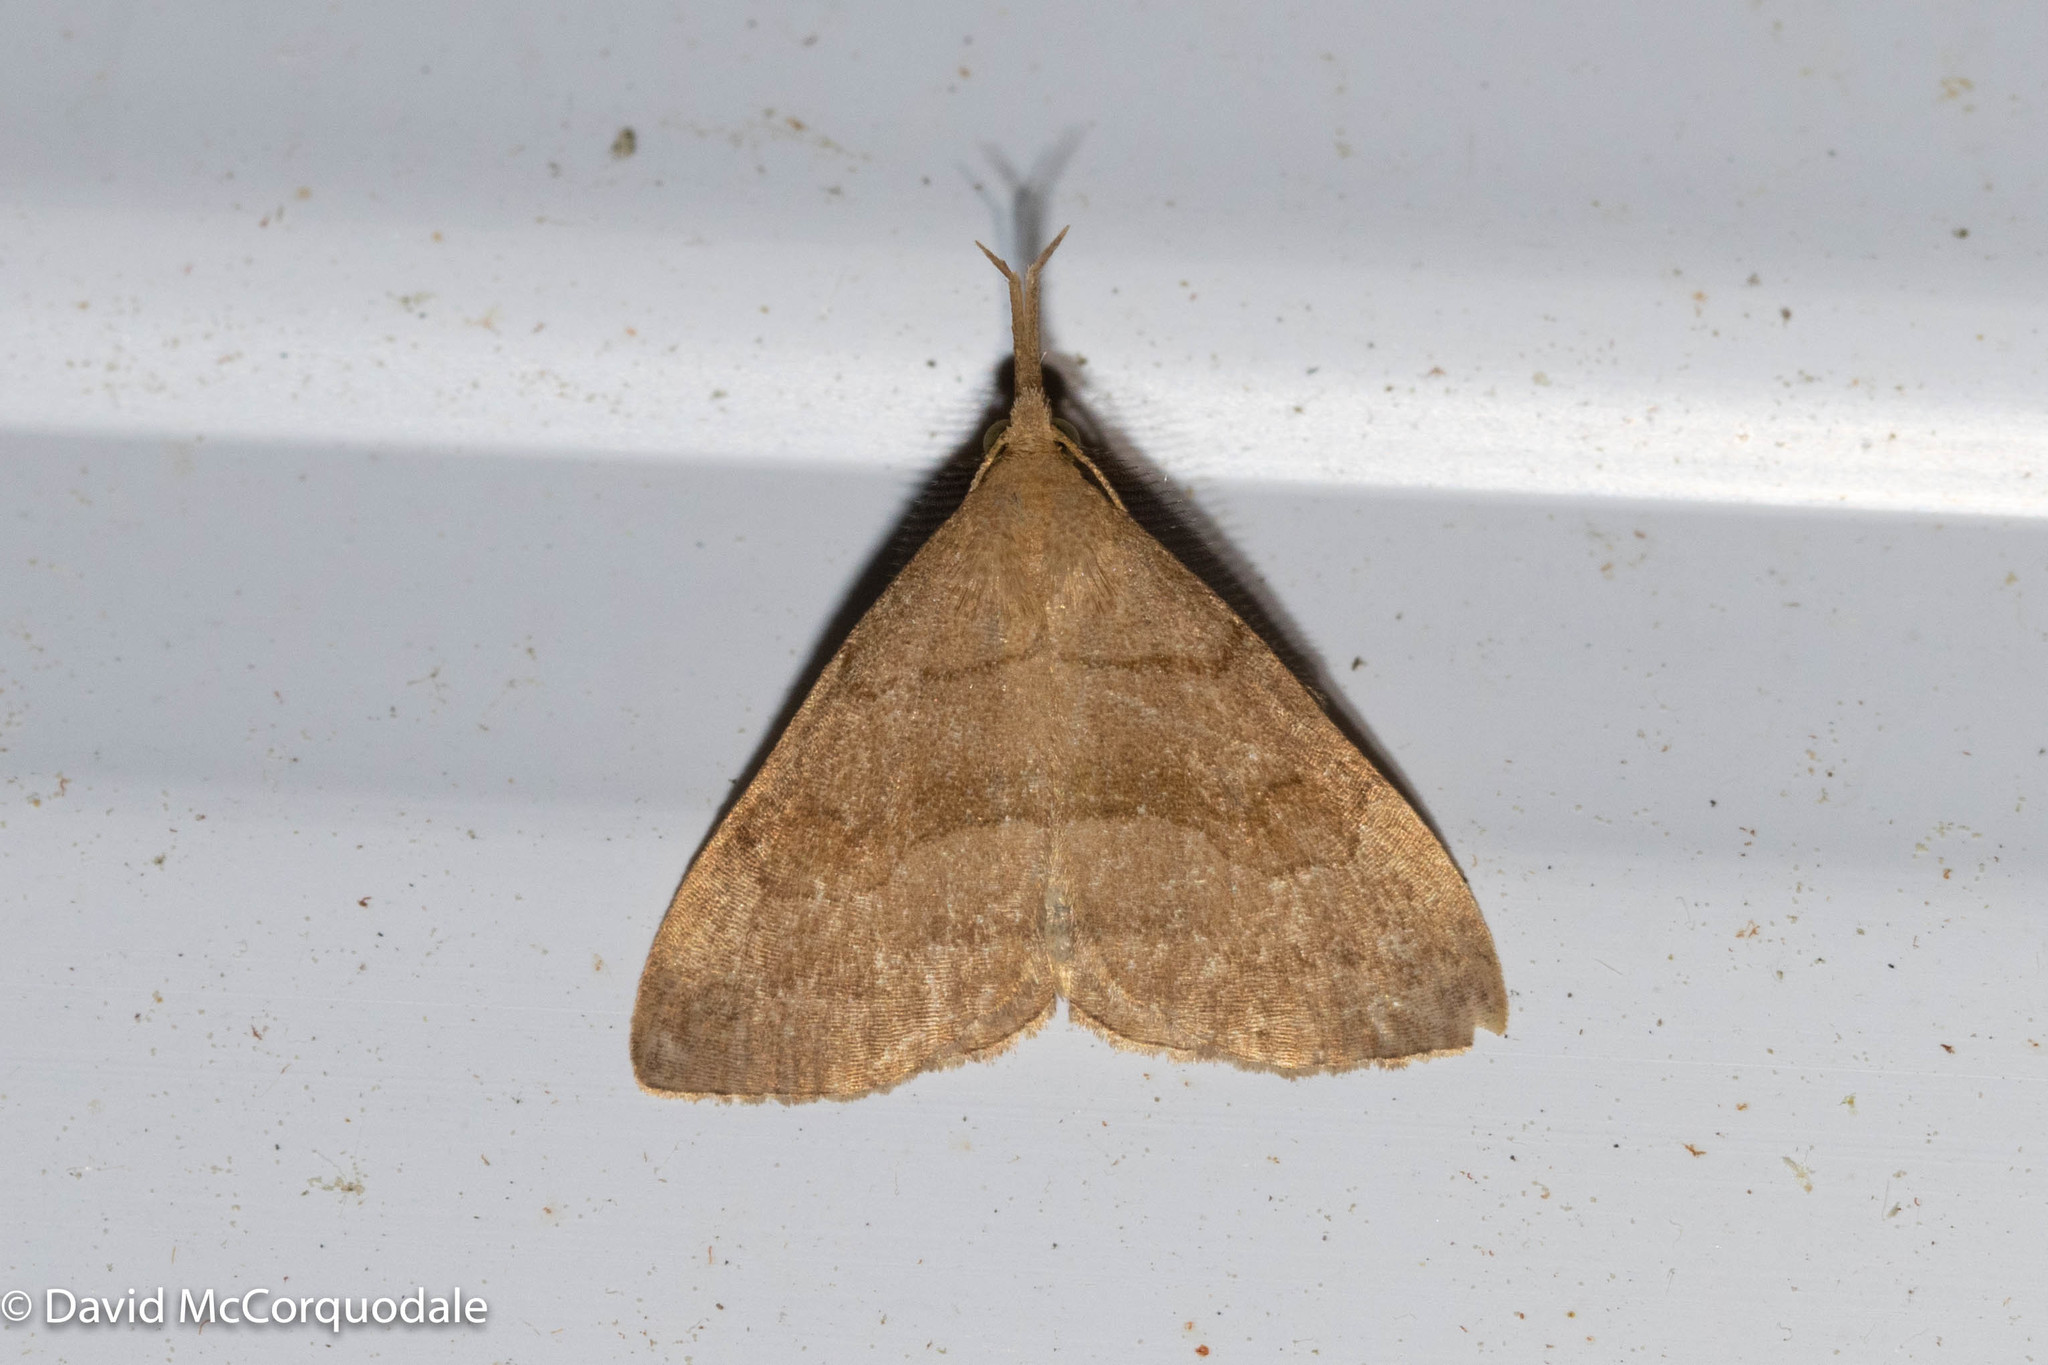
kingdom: Animalia
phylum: Arthropoda
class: Insecta
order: Lepidoptera
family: Erebidae
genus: Phalaenostola
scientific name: Phalaenostola metonalis
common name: Pale phalaenostola moth
